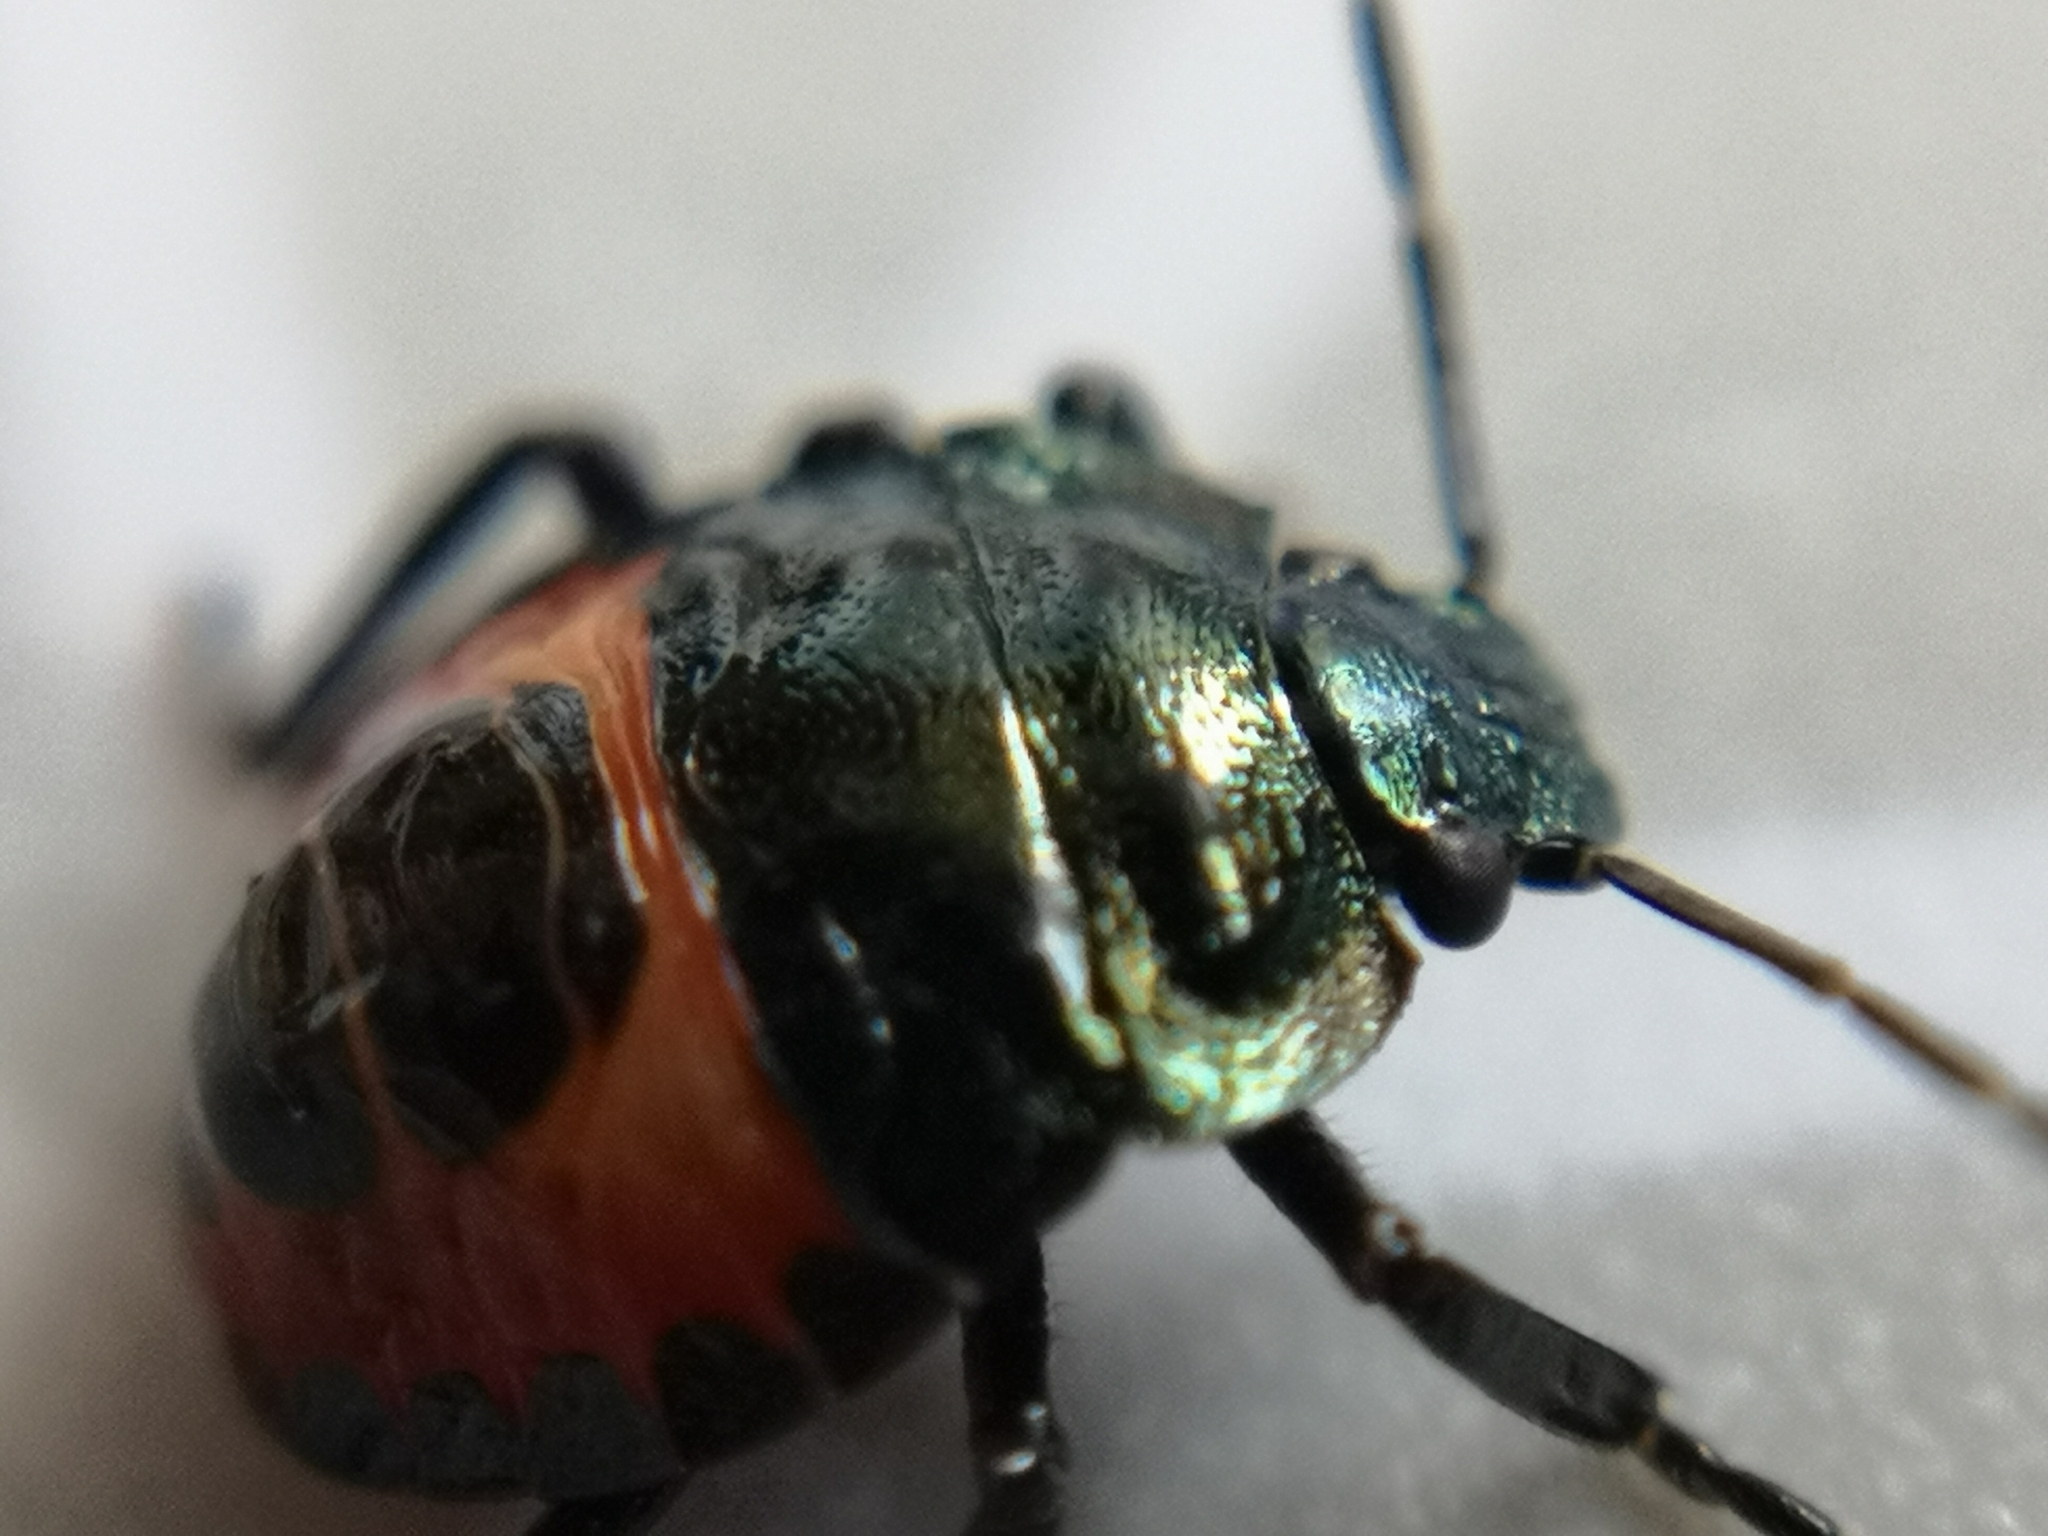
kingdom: Animalia
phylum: Arthropoda
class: Insecta
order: Hemiptera
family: Pentatomidae
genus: Troilus
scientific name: Troilus luridus
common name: Bronze shieldbug
